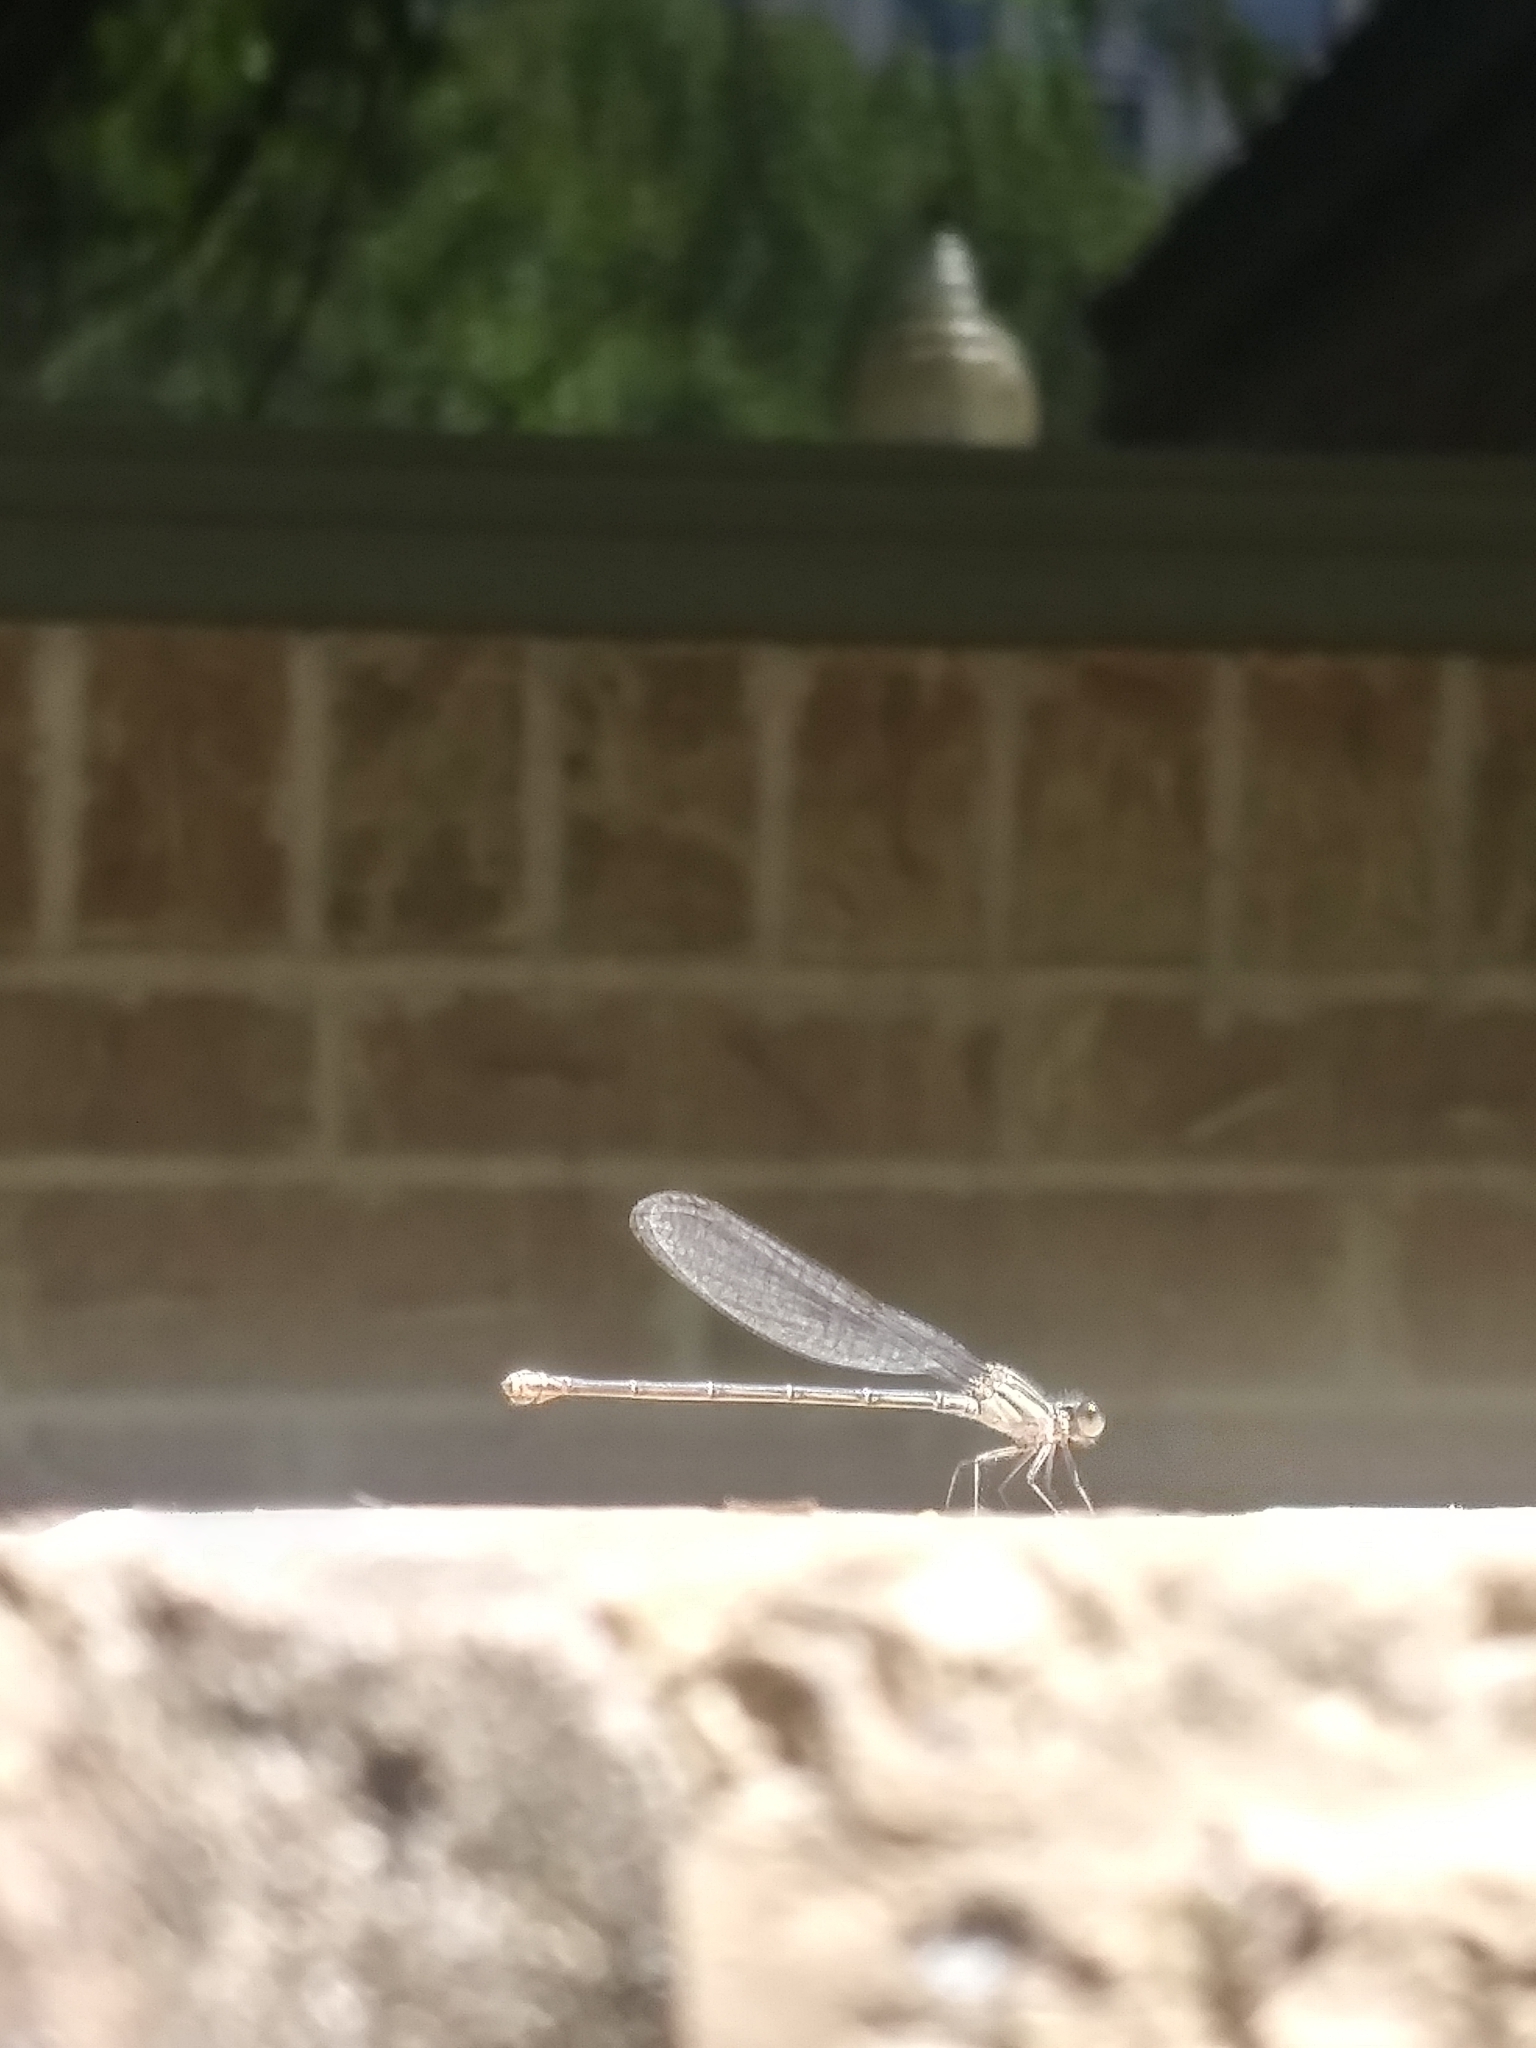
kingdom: Animalia
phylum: Arthropoda
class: Insecta
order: Odonata
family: Coenagrionidae
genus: Argia
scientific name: Argia translata
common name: Dusky dancer
